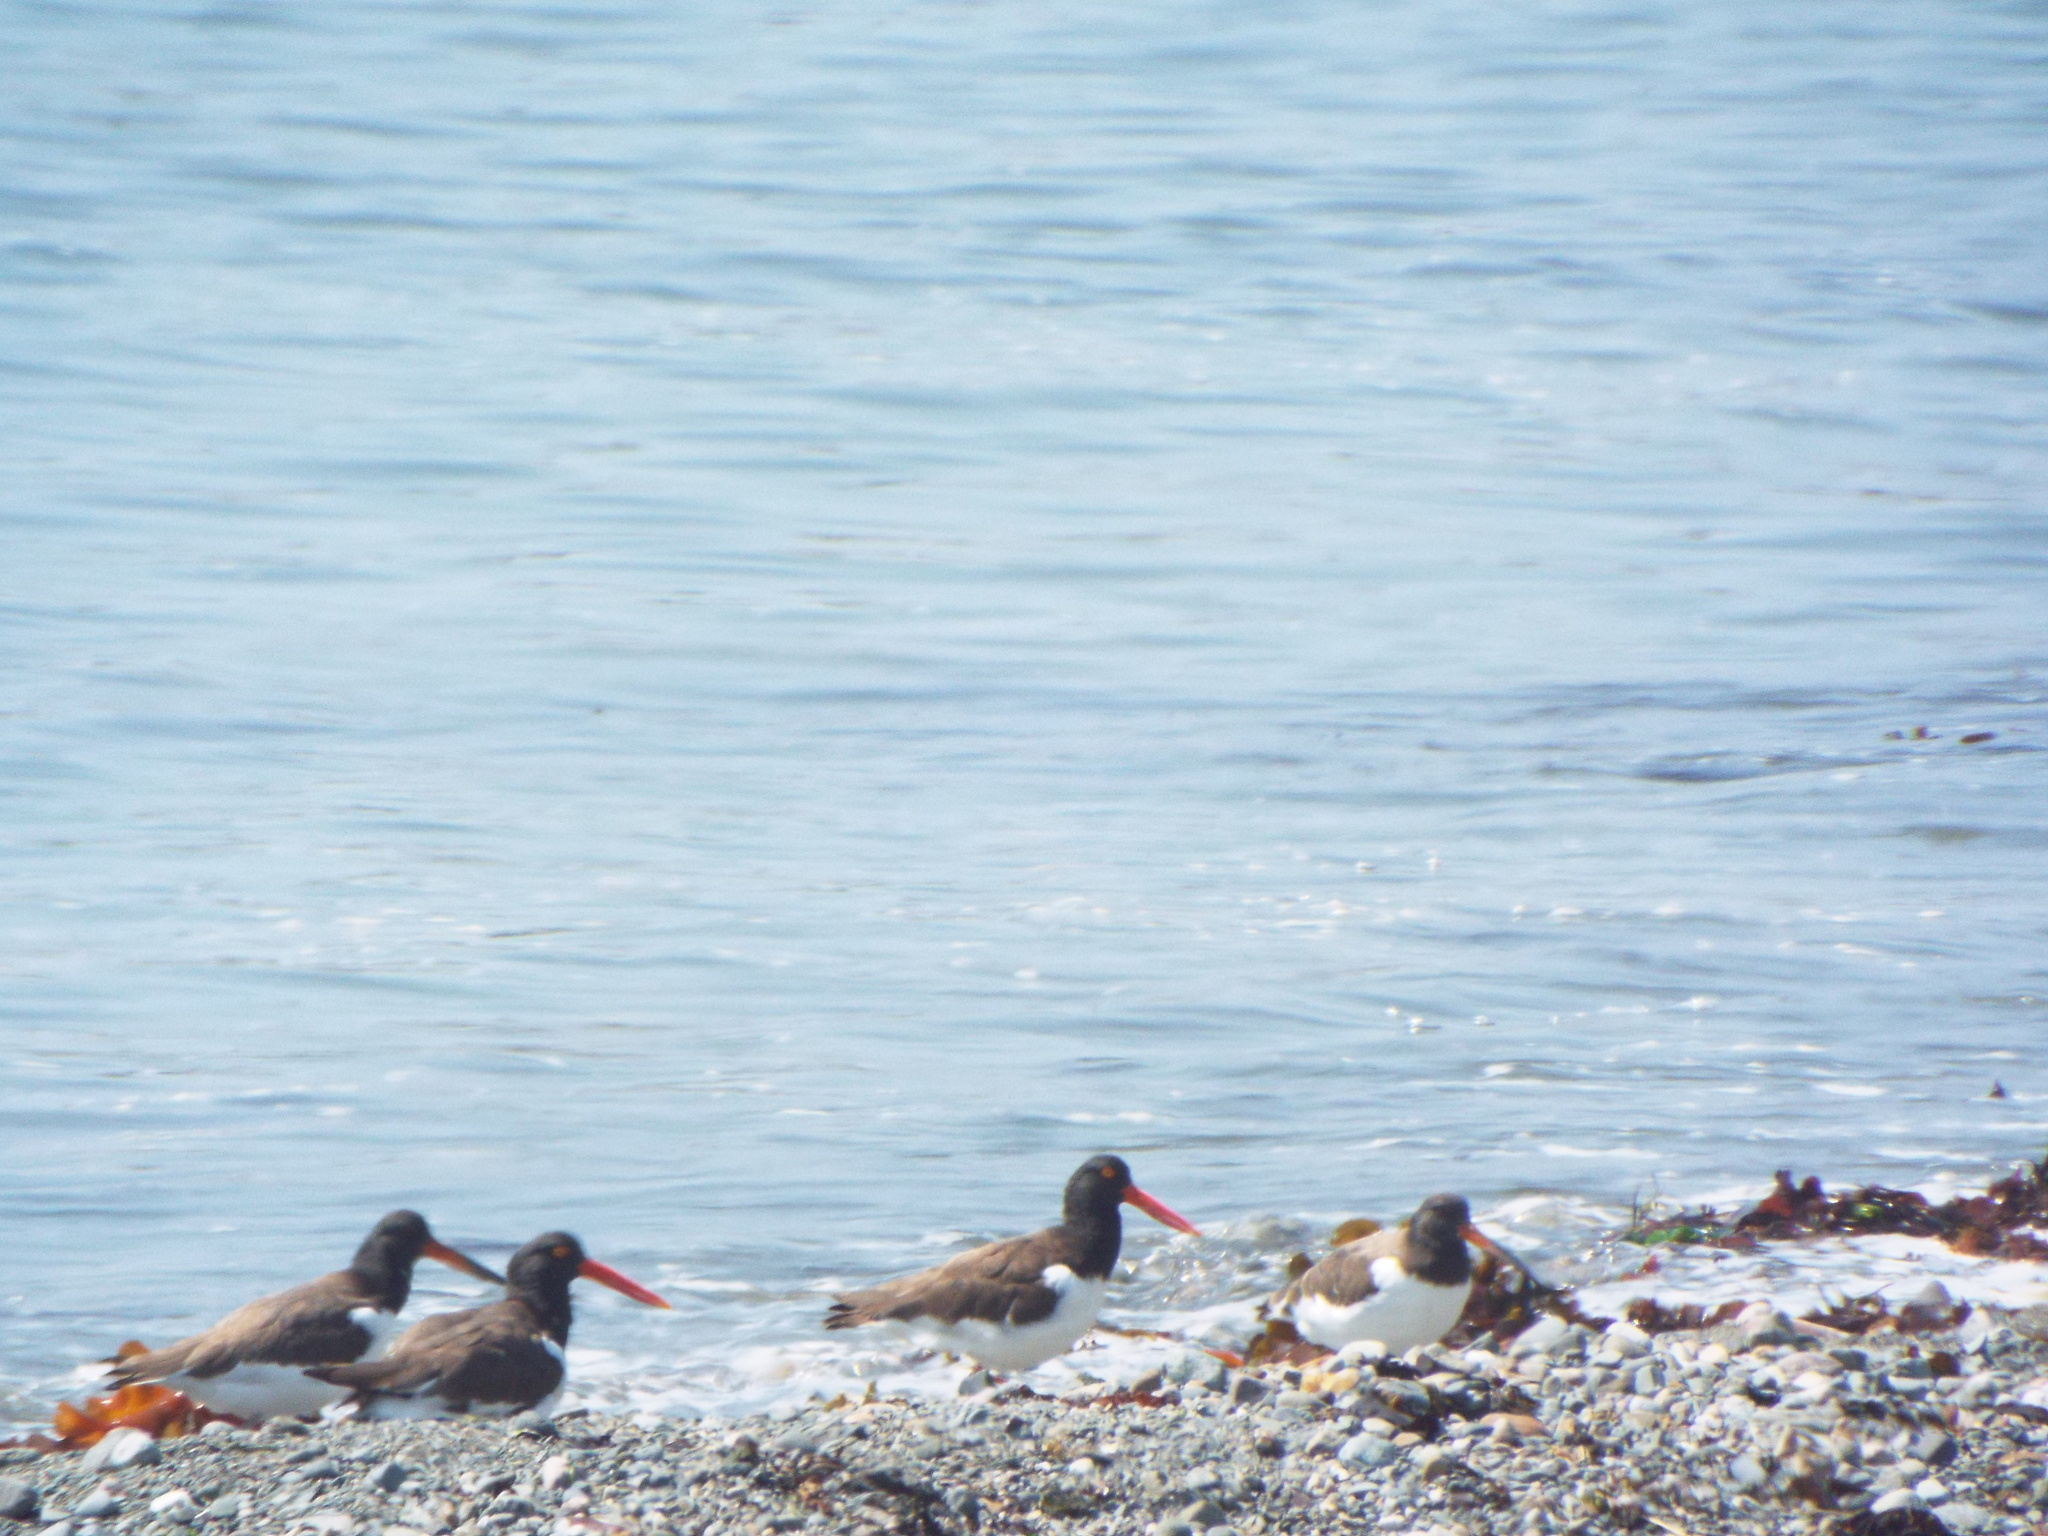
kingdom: Animalia
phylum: Chordata
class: Aves
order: Charadriiformes
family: Haematopodidae
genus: Haematopus
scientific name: Haematopus palliatus
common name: American oystercatcher
